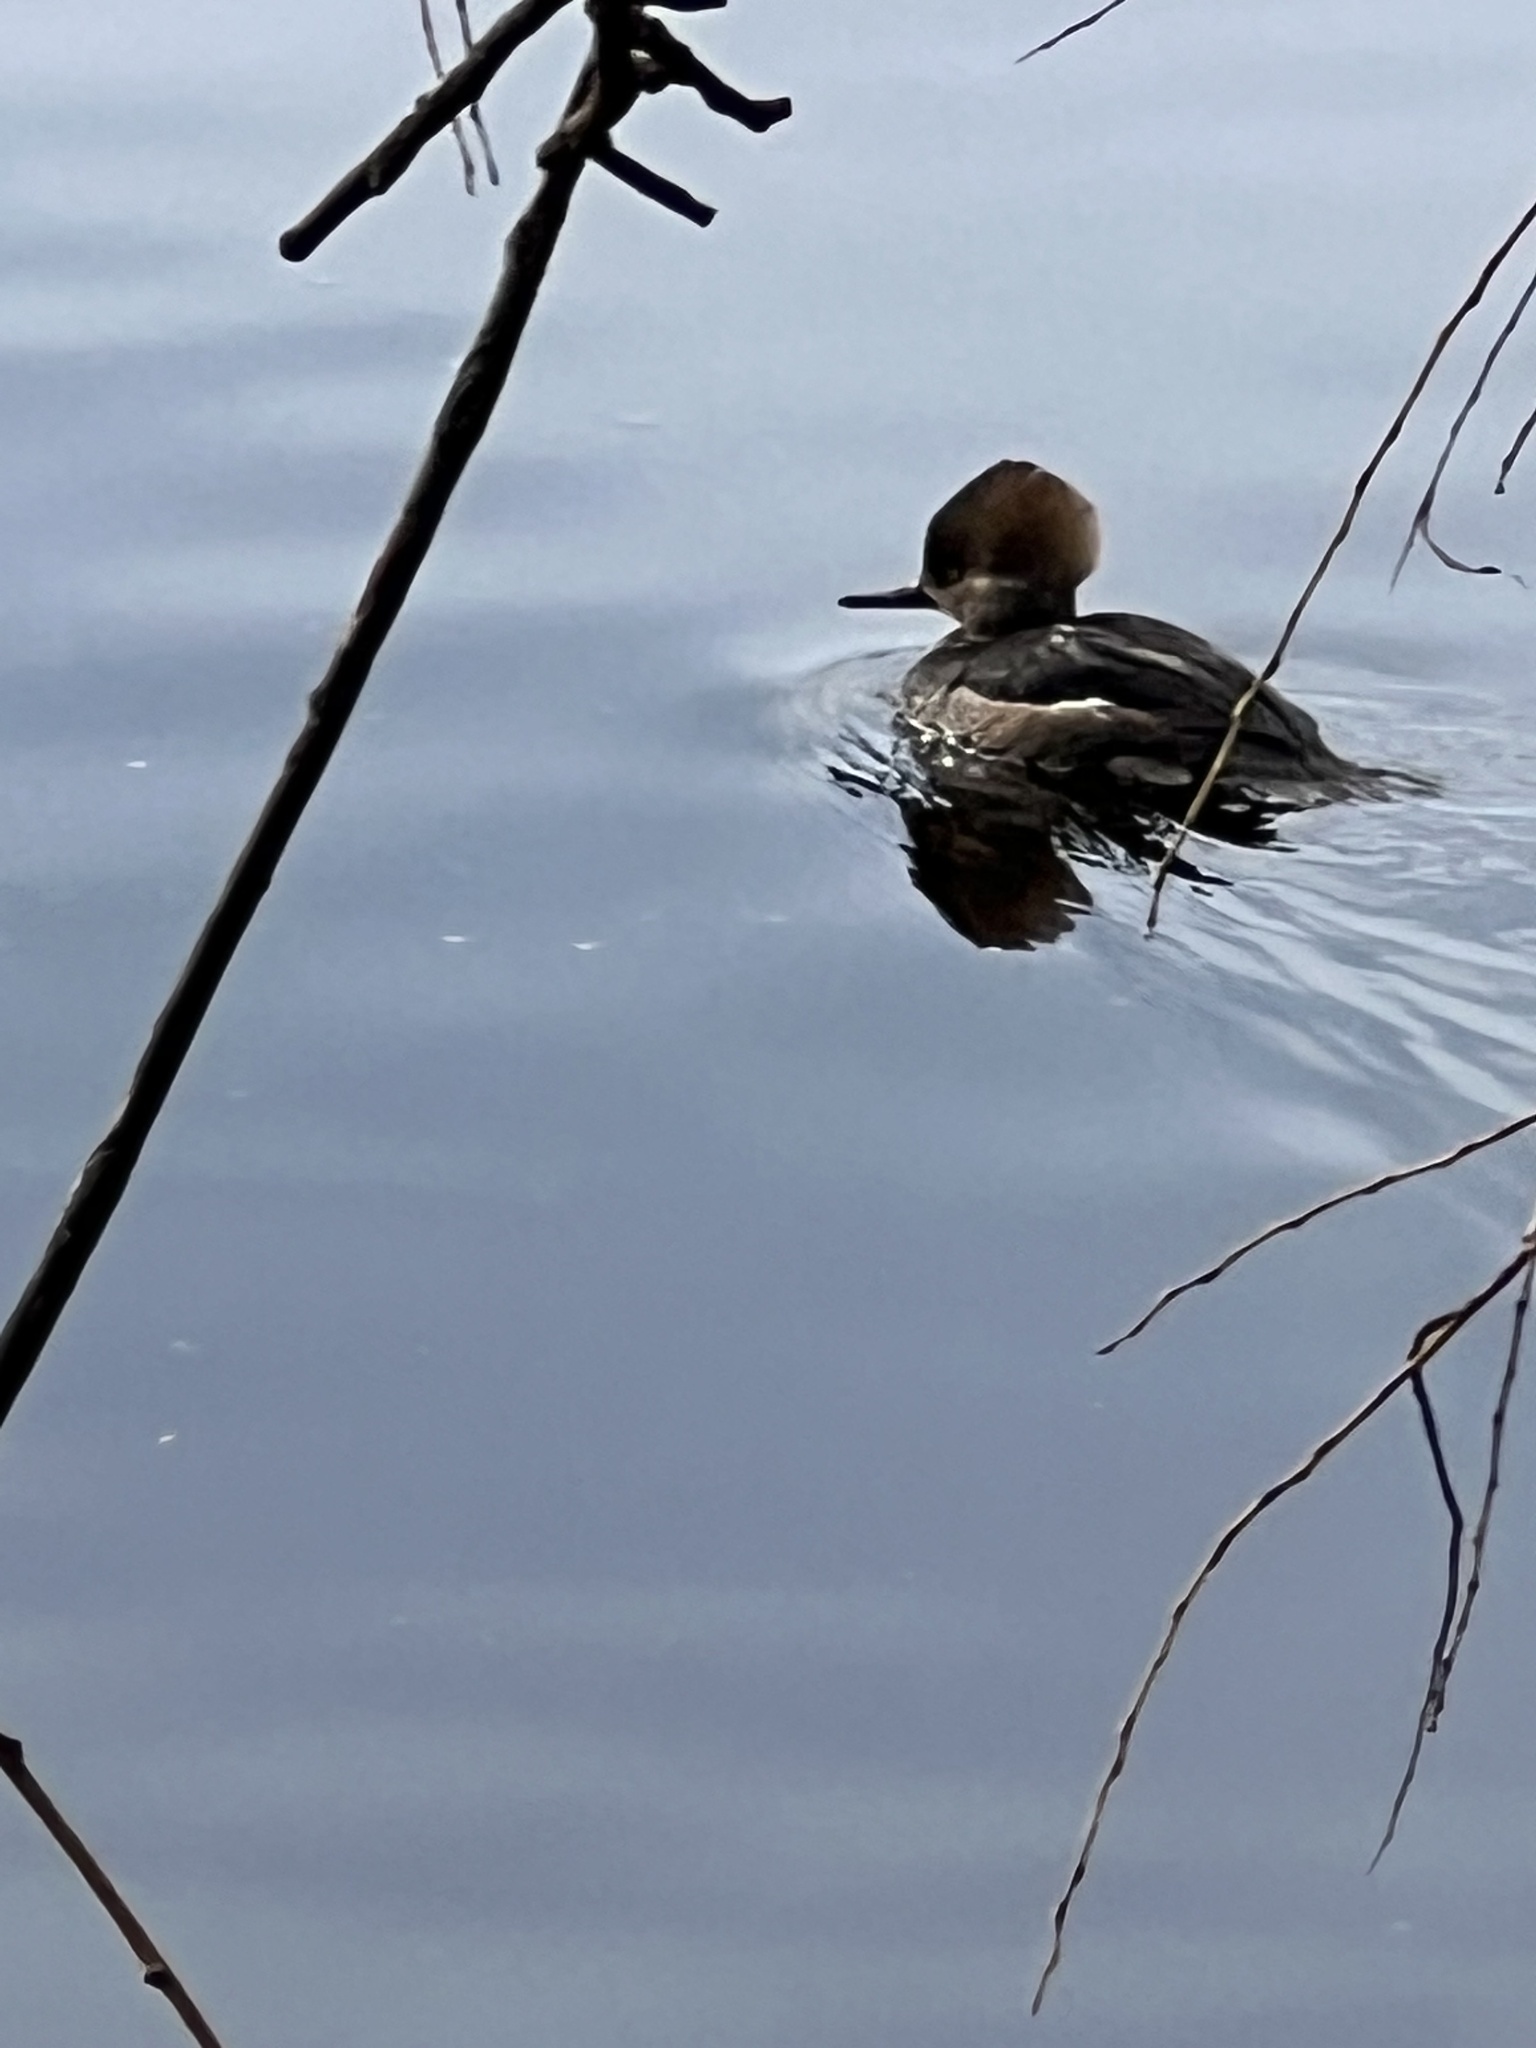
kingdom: Animalia
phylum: Chordata
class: Aves
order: Anseriformes
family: Anatidae
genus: Lophodytes
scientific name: Lophodytes cucullatus
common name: Hooded merganser
